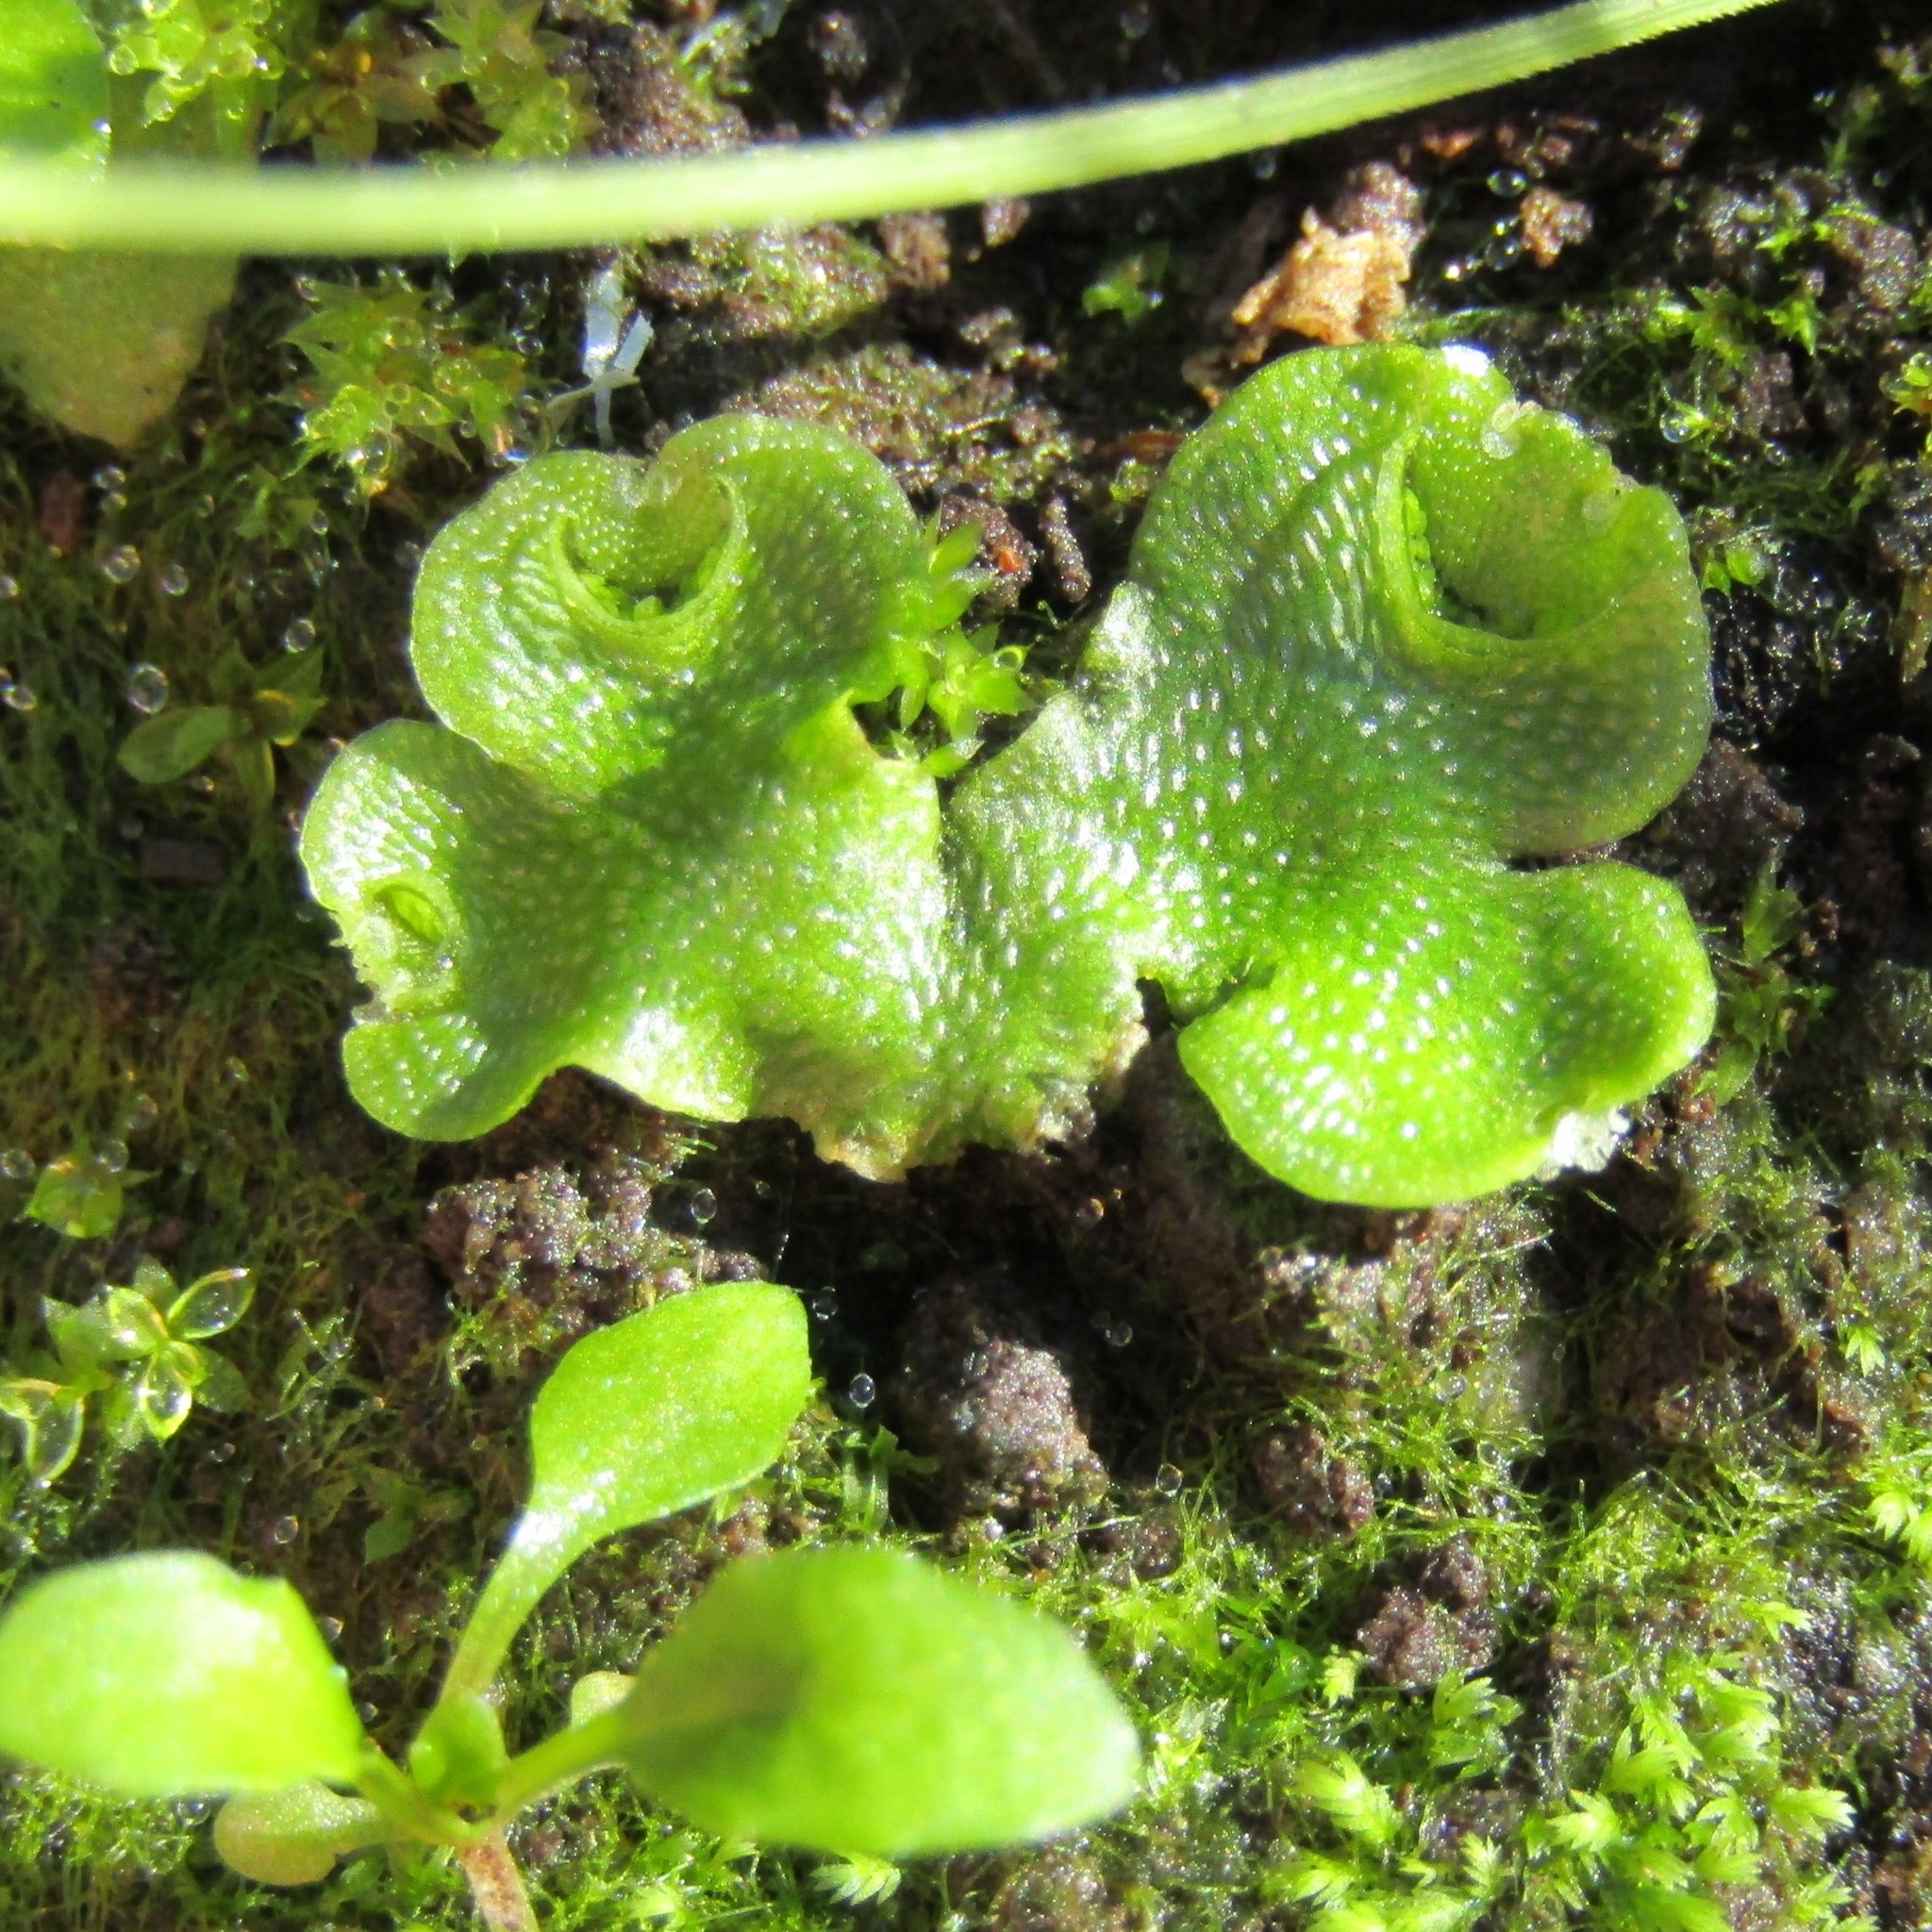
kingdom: Plantae
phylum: Marchantiophyta
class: Marchantiopsida
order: Lunulariales
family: Lunulariaceae
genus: Lunularia
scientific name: Lunularia cruciata
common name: Crescent-cup liverwort
